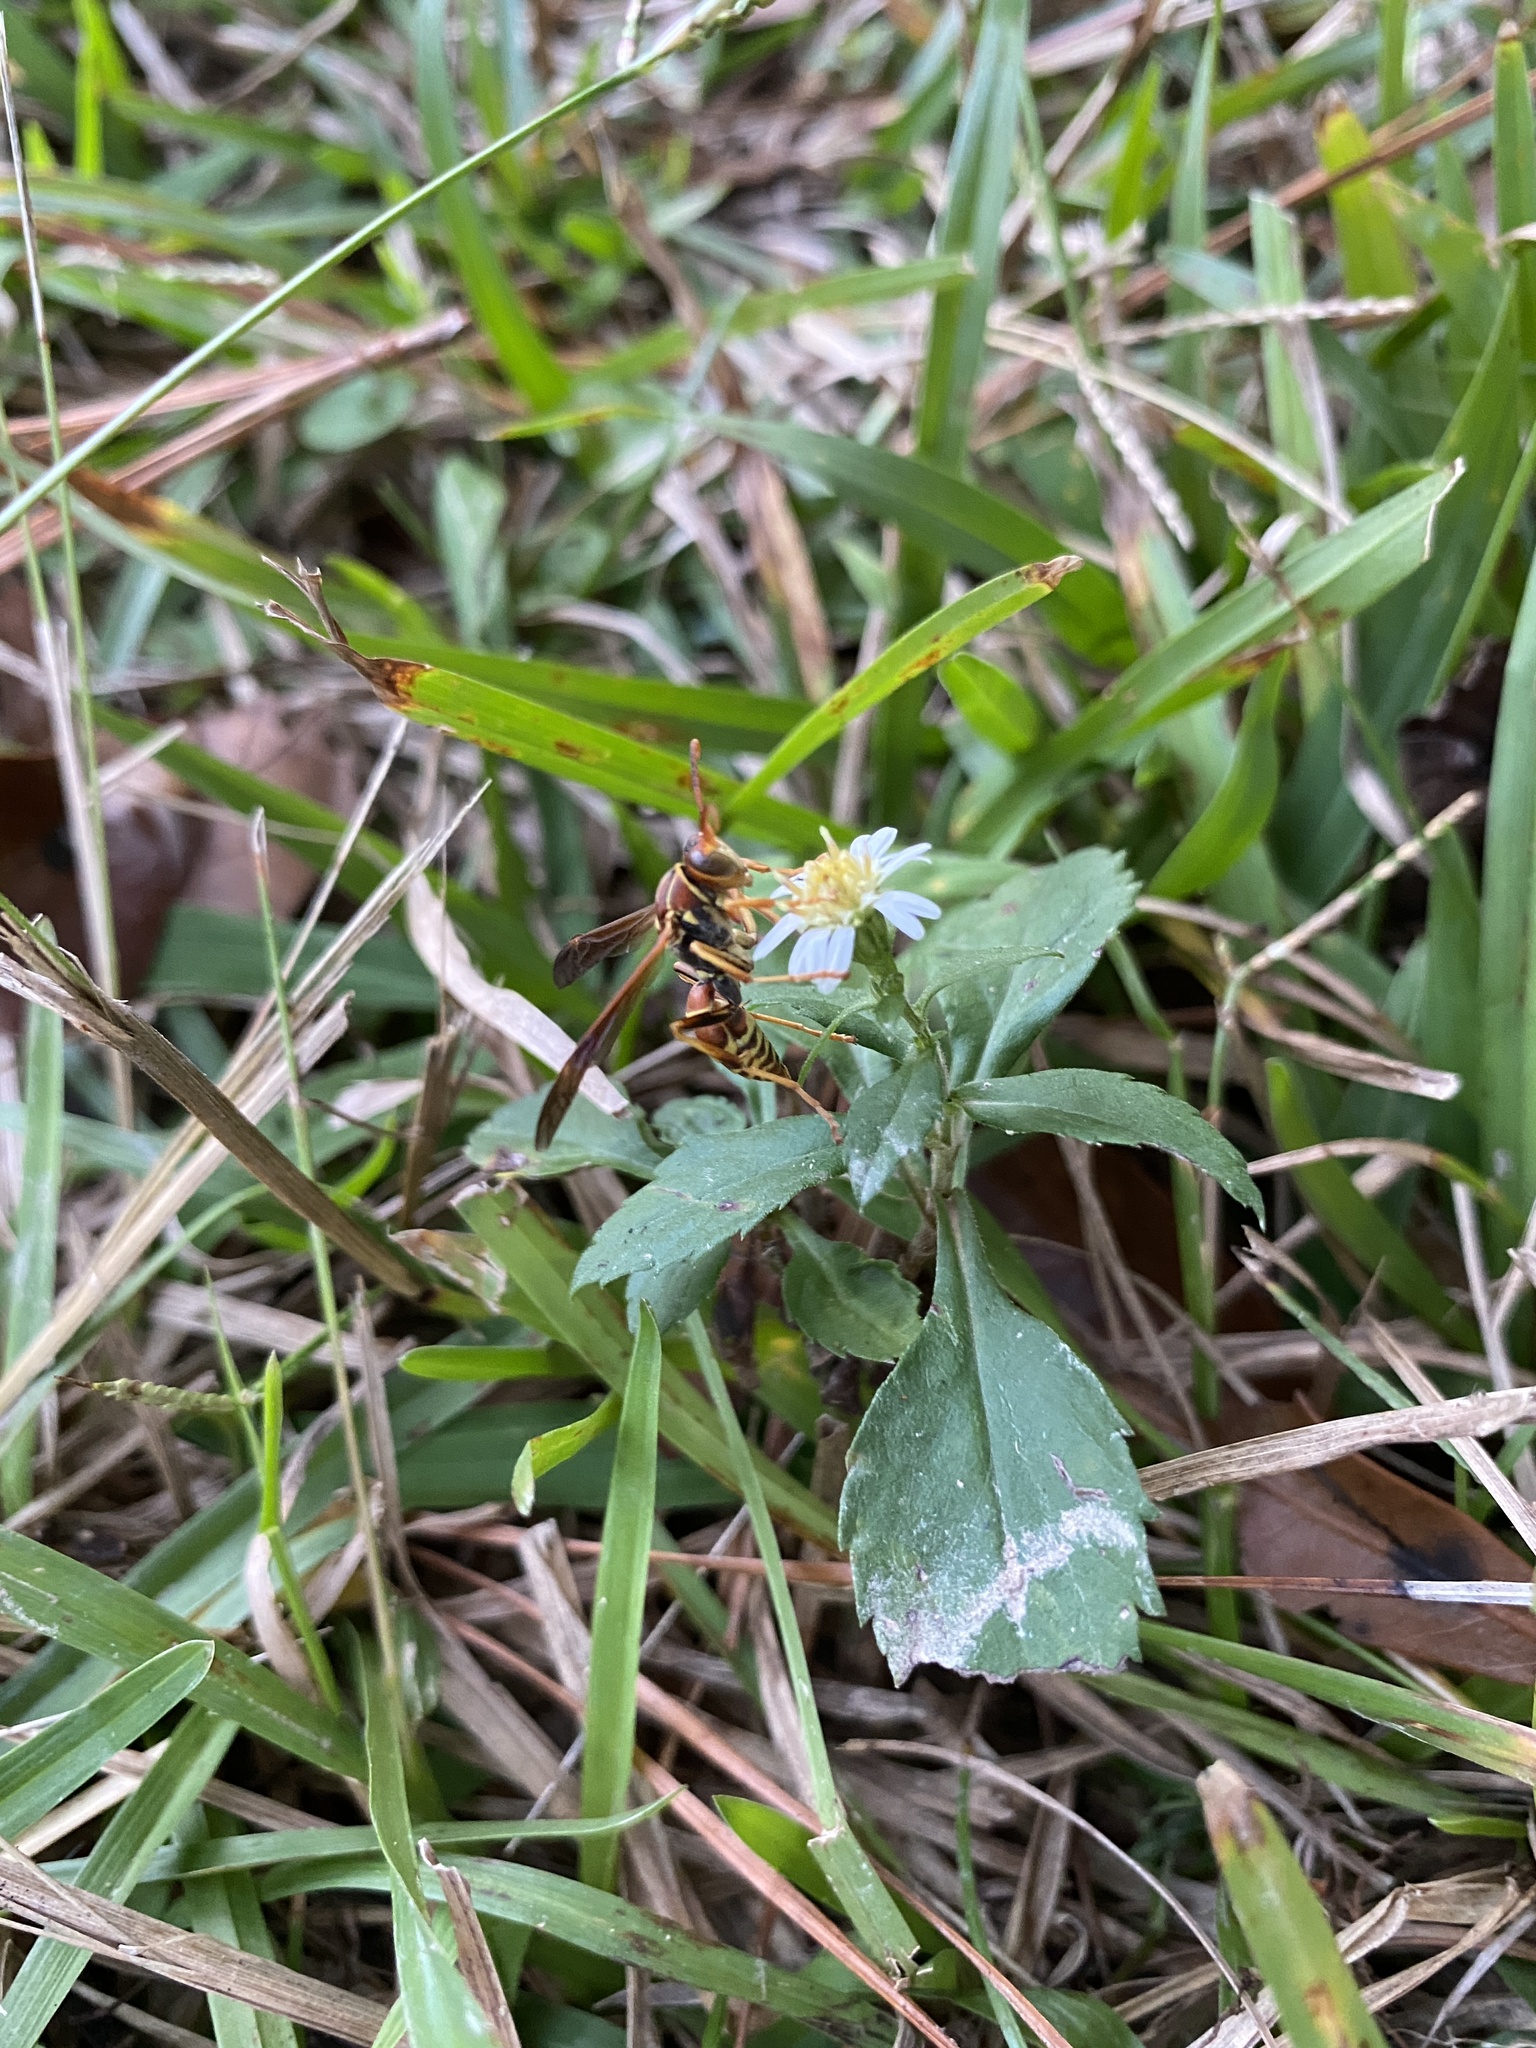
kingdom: Animalia
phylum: Arthropoda
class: Insecta
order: Hymenoptera
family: Eumenidae
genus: Polistes
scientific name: Polistes dorsalis
